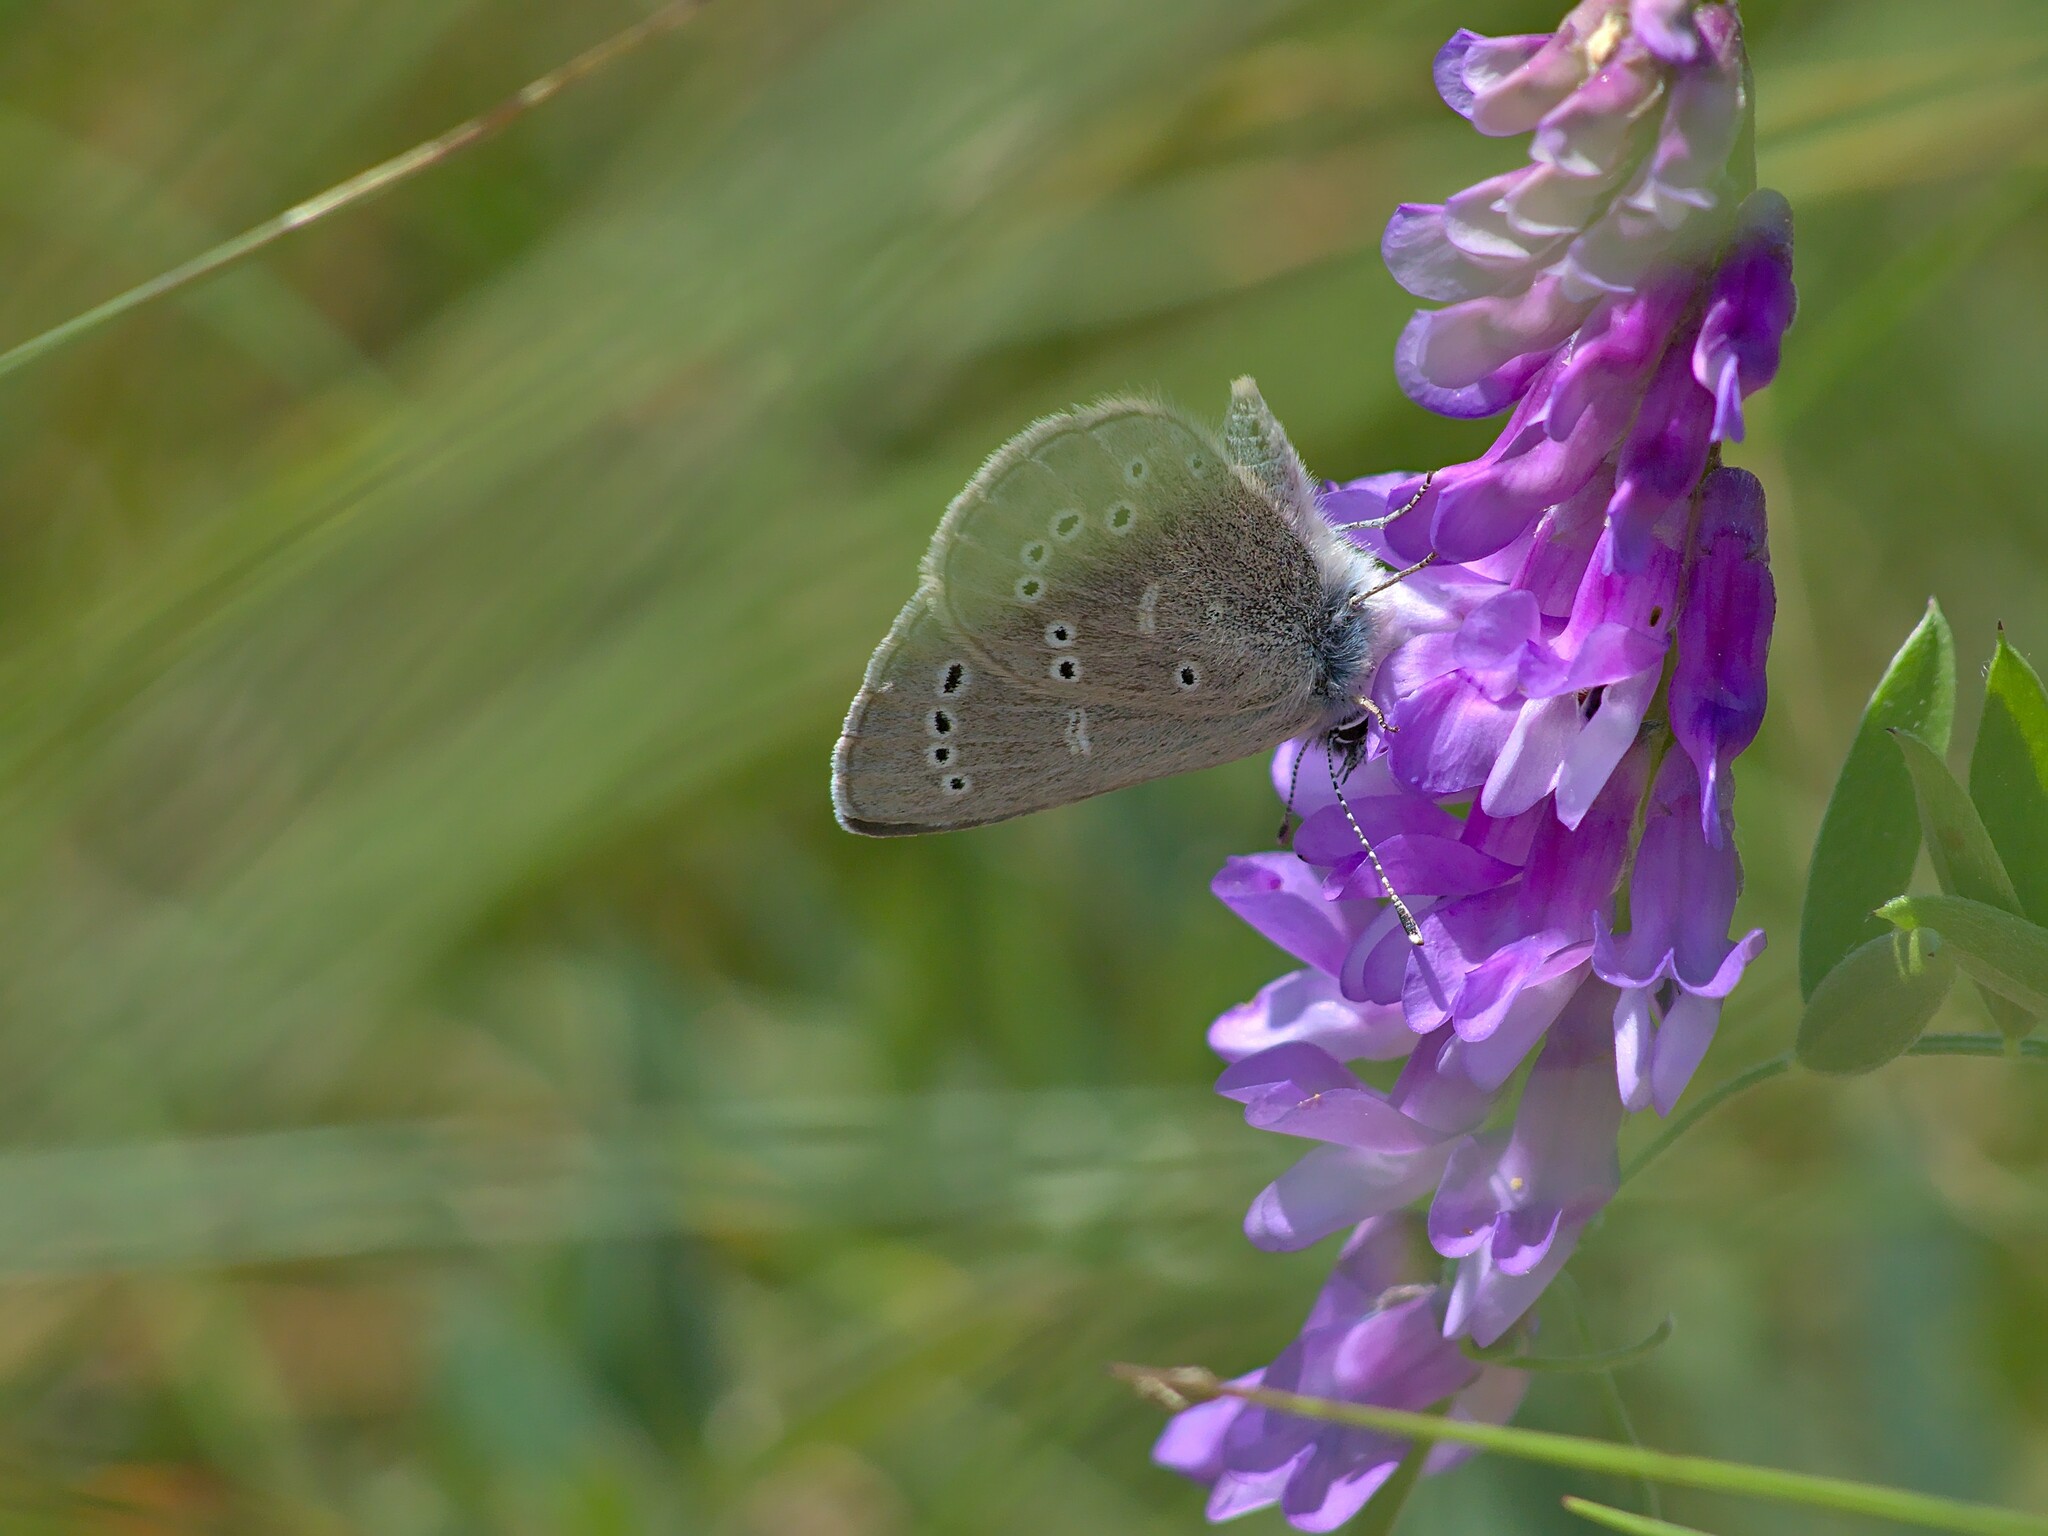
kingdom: Plantae
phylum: Tracheophyta
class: Magnoliopsida
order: Fabales
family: Fabaceae
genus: Vicia
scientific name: Vicia cracca
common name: Bird vetch
